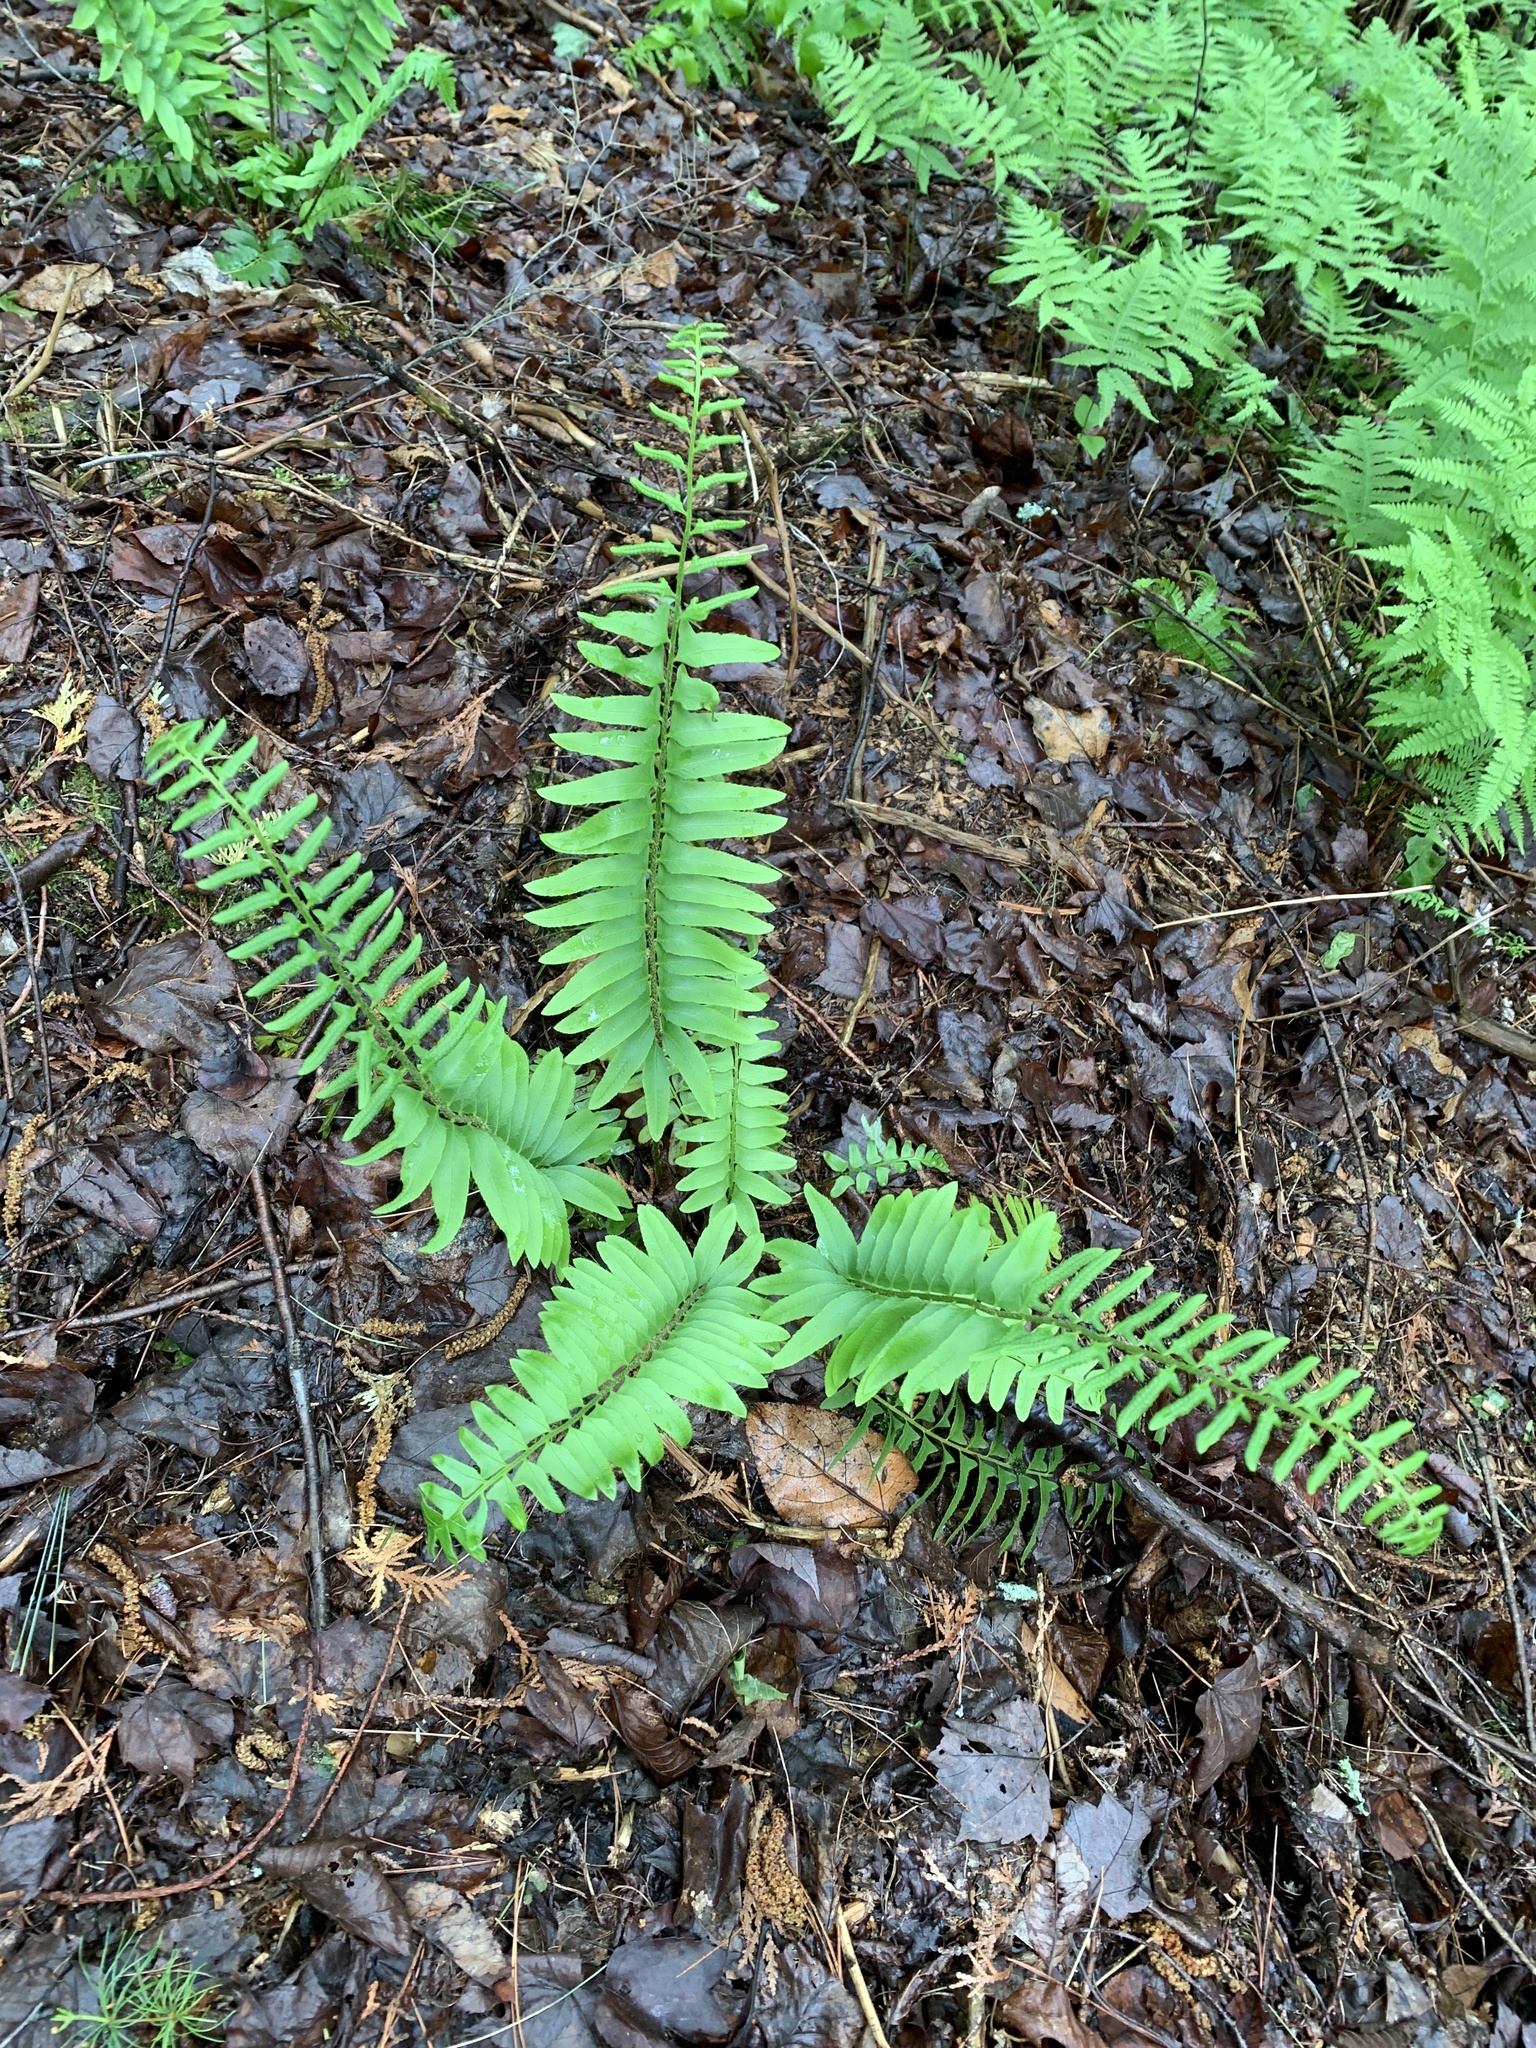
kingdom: Plantae
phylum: Tracheophyta
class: Polypodiopsida
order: Polypodiales
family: Dryopteridaceae
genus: Polystichum
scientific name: Polystichum acrostichoides
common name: Christmas fern
